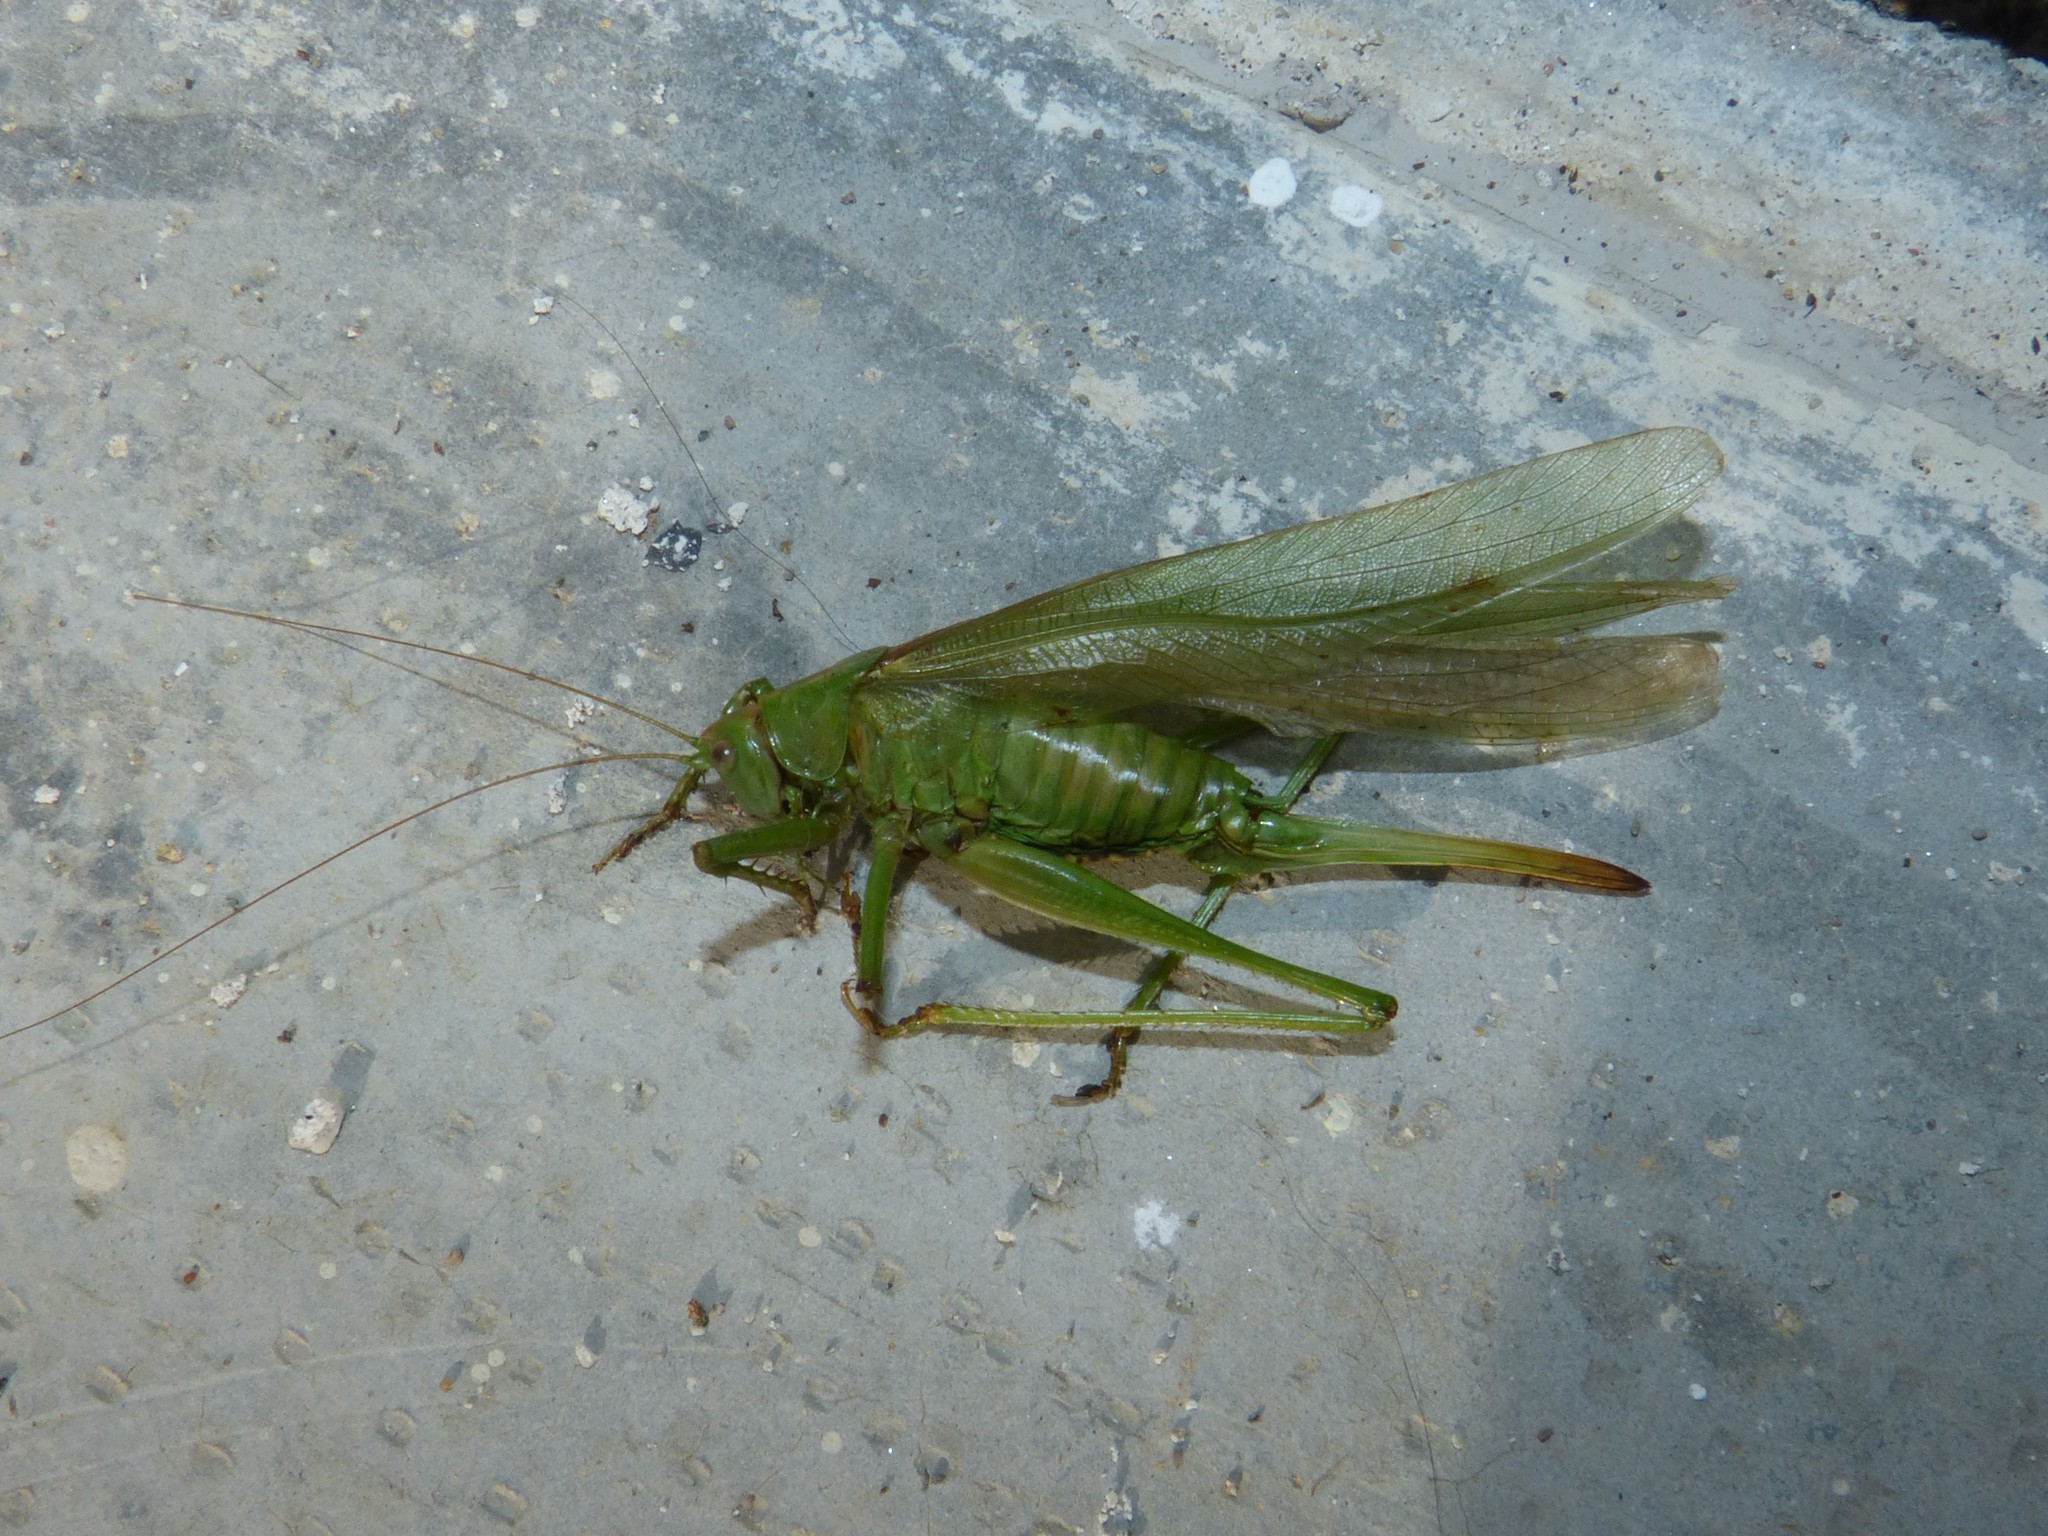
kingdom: Animalia
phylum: Arthropoda
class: Insecta
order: Orthoptera
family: Tettigoniidae
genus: Tettigonia
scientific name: Tettigonia viridissima
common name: Great green bush-cricket
